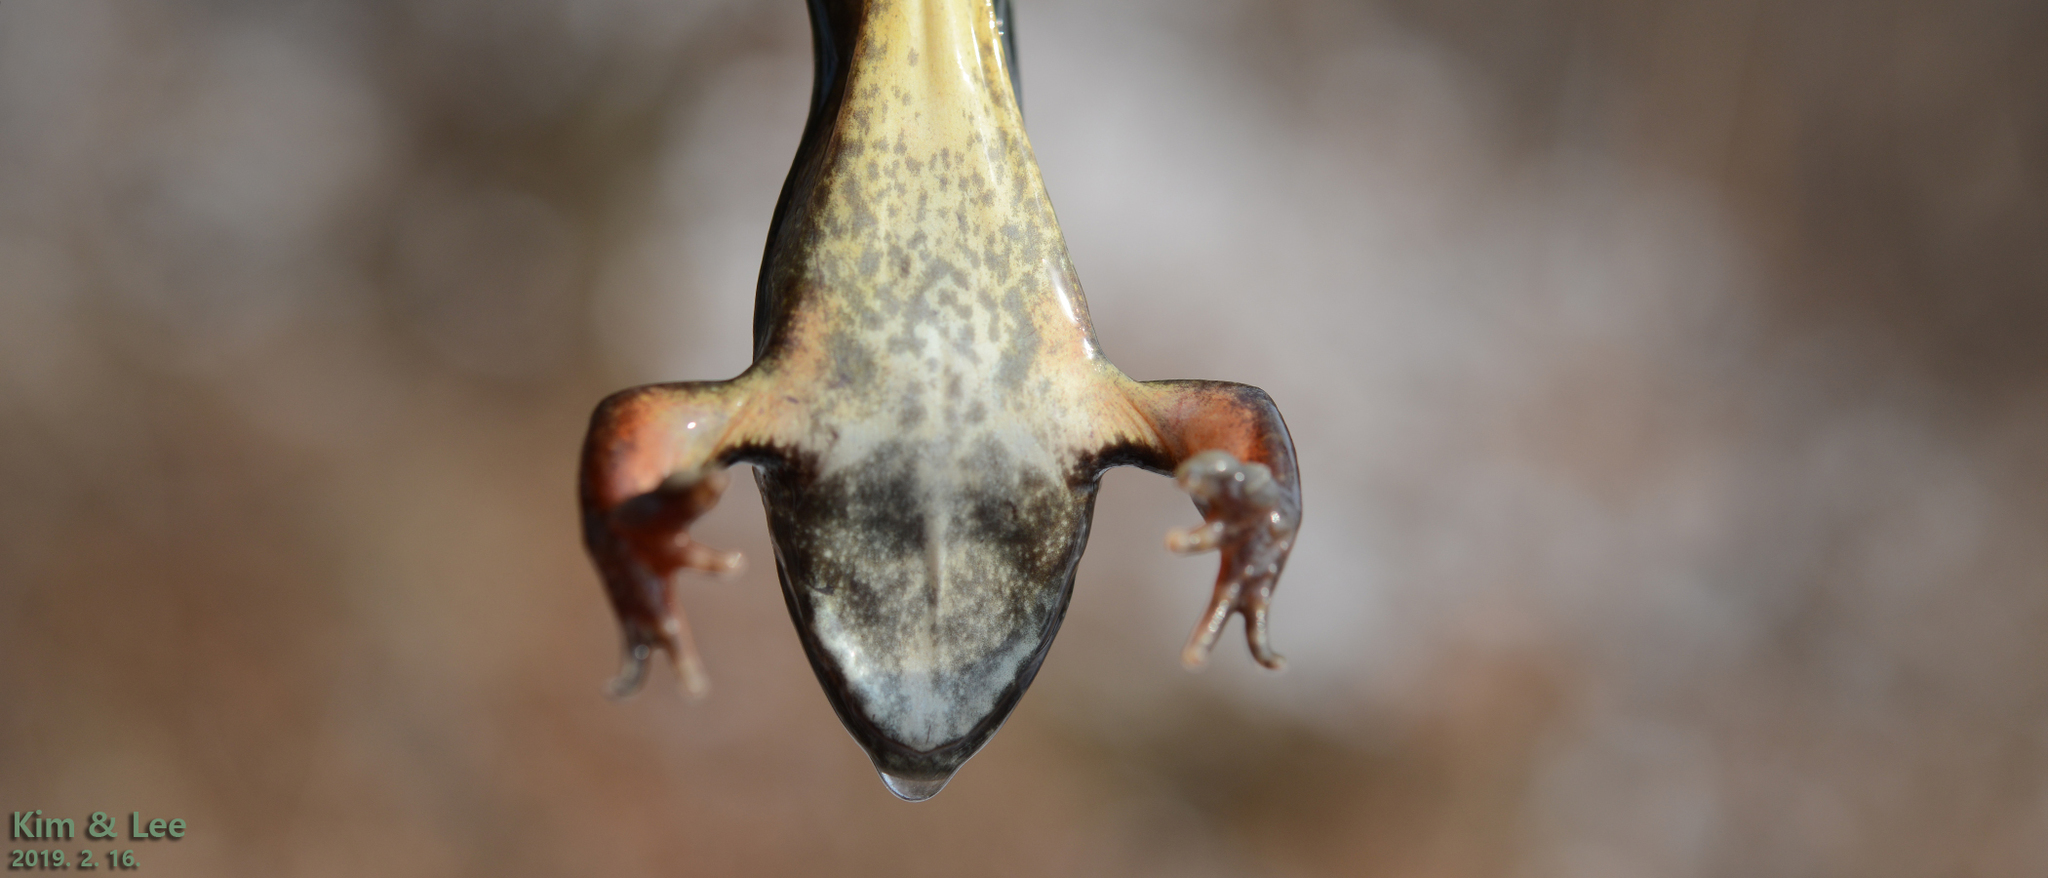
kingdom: Animalia
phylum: Chordata
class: Amphibia
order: Anura
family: Ranidae
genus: Rana
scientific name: Rana dybowskii
